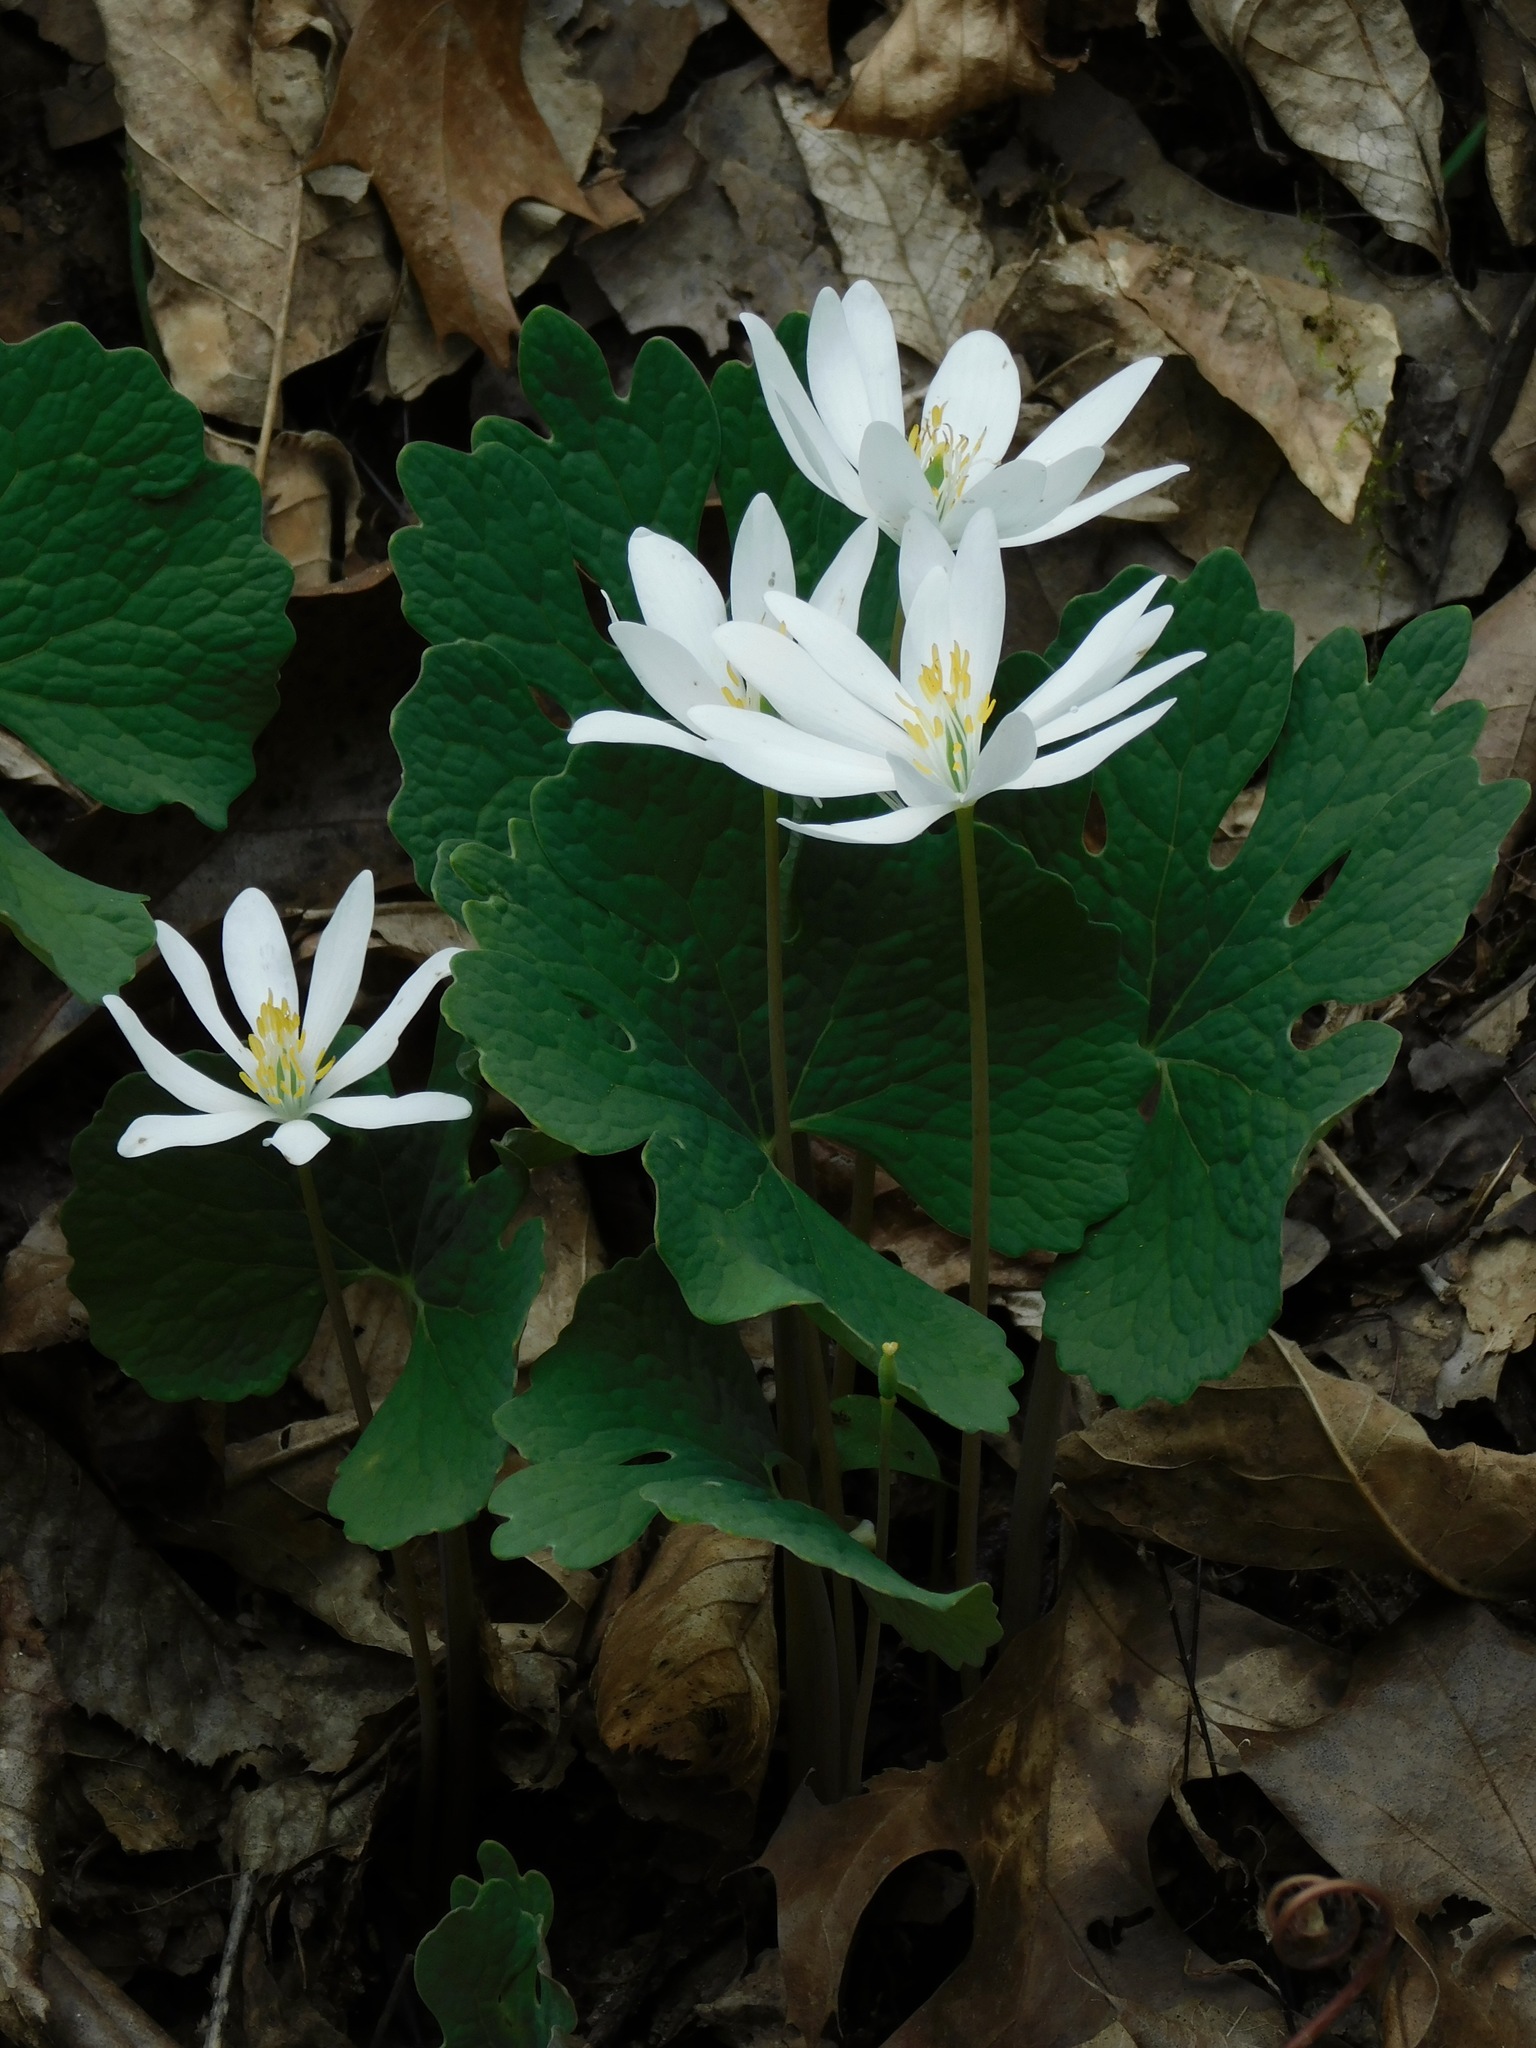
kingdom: Plantae
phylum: Tracheophyta
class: Magnoliopsida
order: Ranunculales
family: Papaveraceae
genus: Sanguinaria
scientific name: Sanguinaria canadensis
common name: Bloodroot
